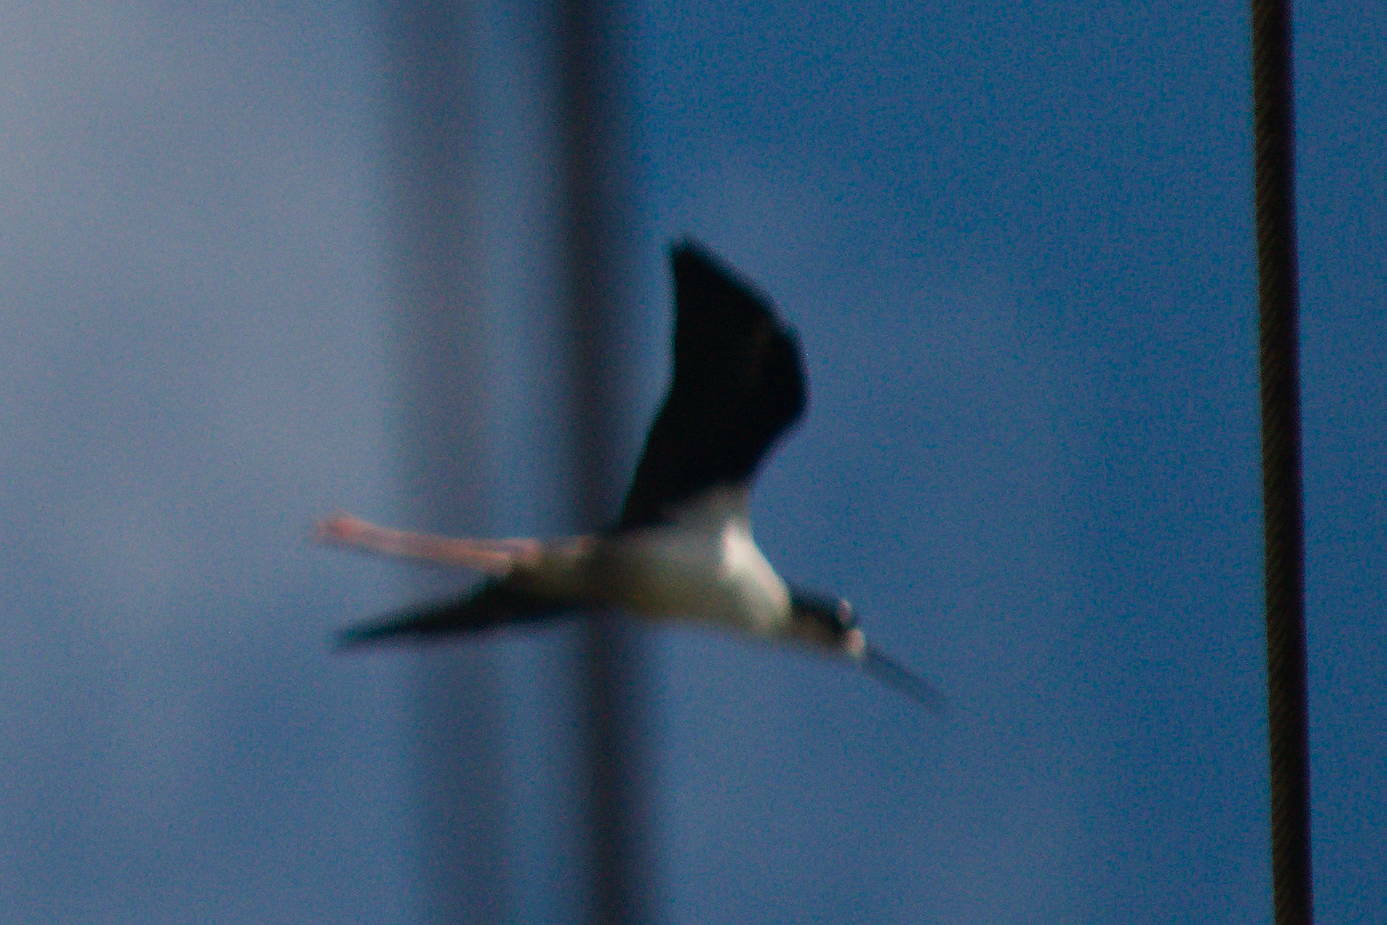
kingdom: Animalia
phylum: Chordata
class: Aves
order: Charadriiformes
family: Recurvirostridae
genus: Himantopus
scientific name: Himantopus mexicanus
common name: Black-necked stilt
